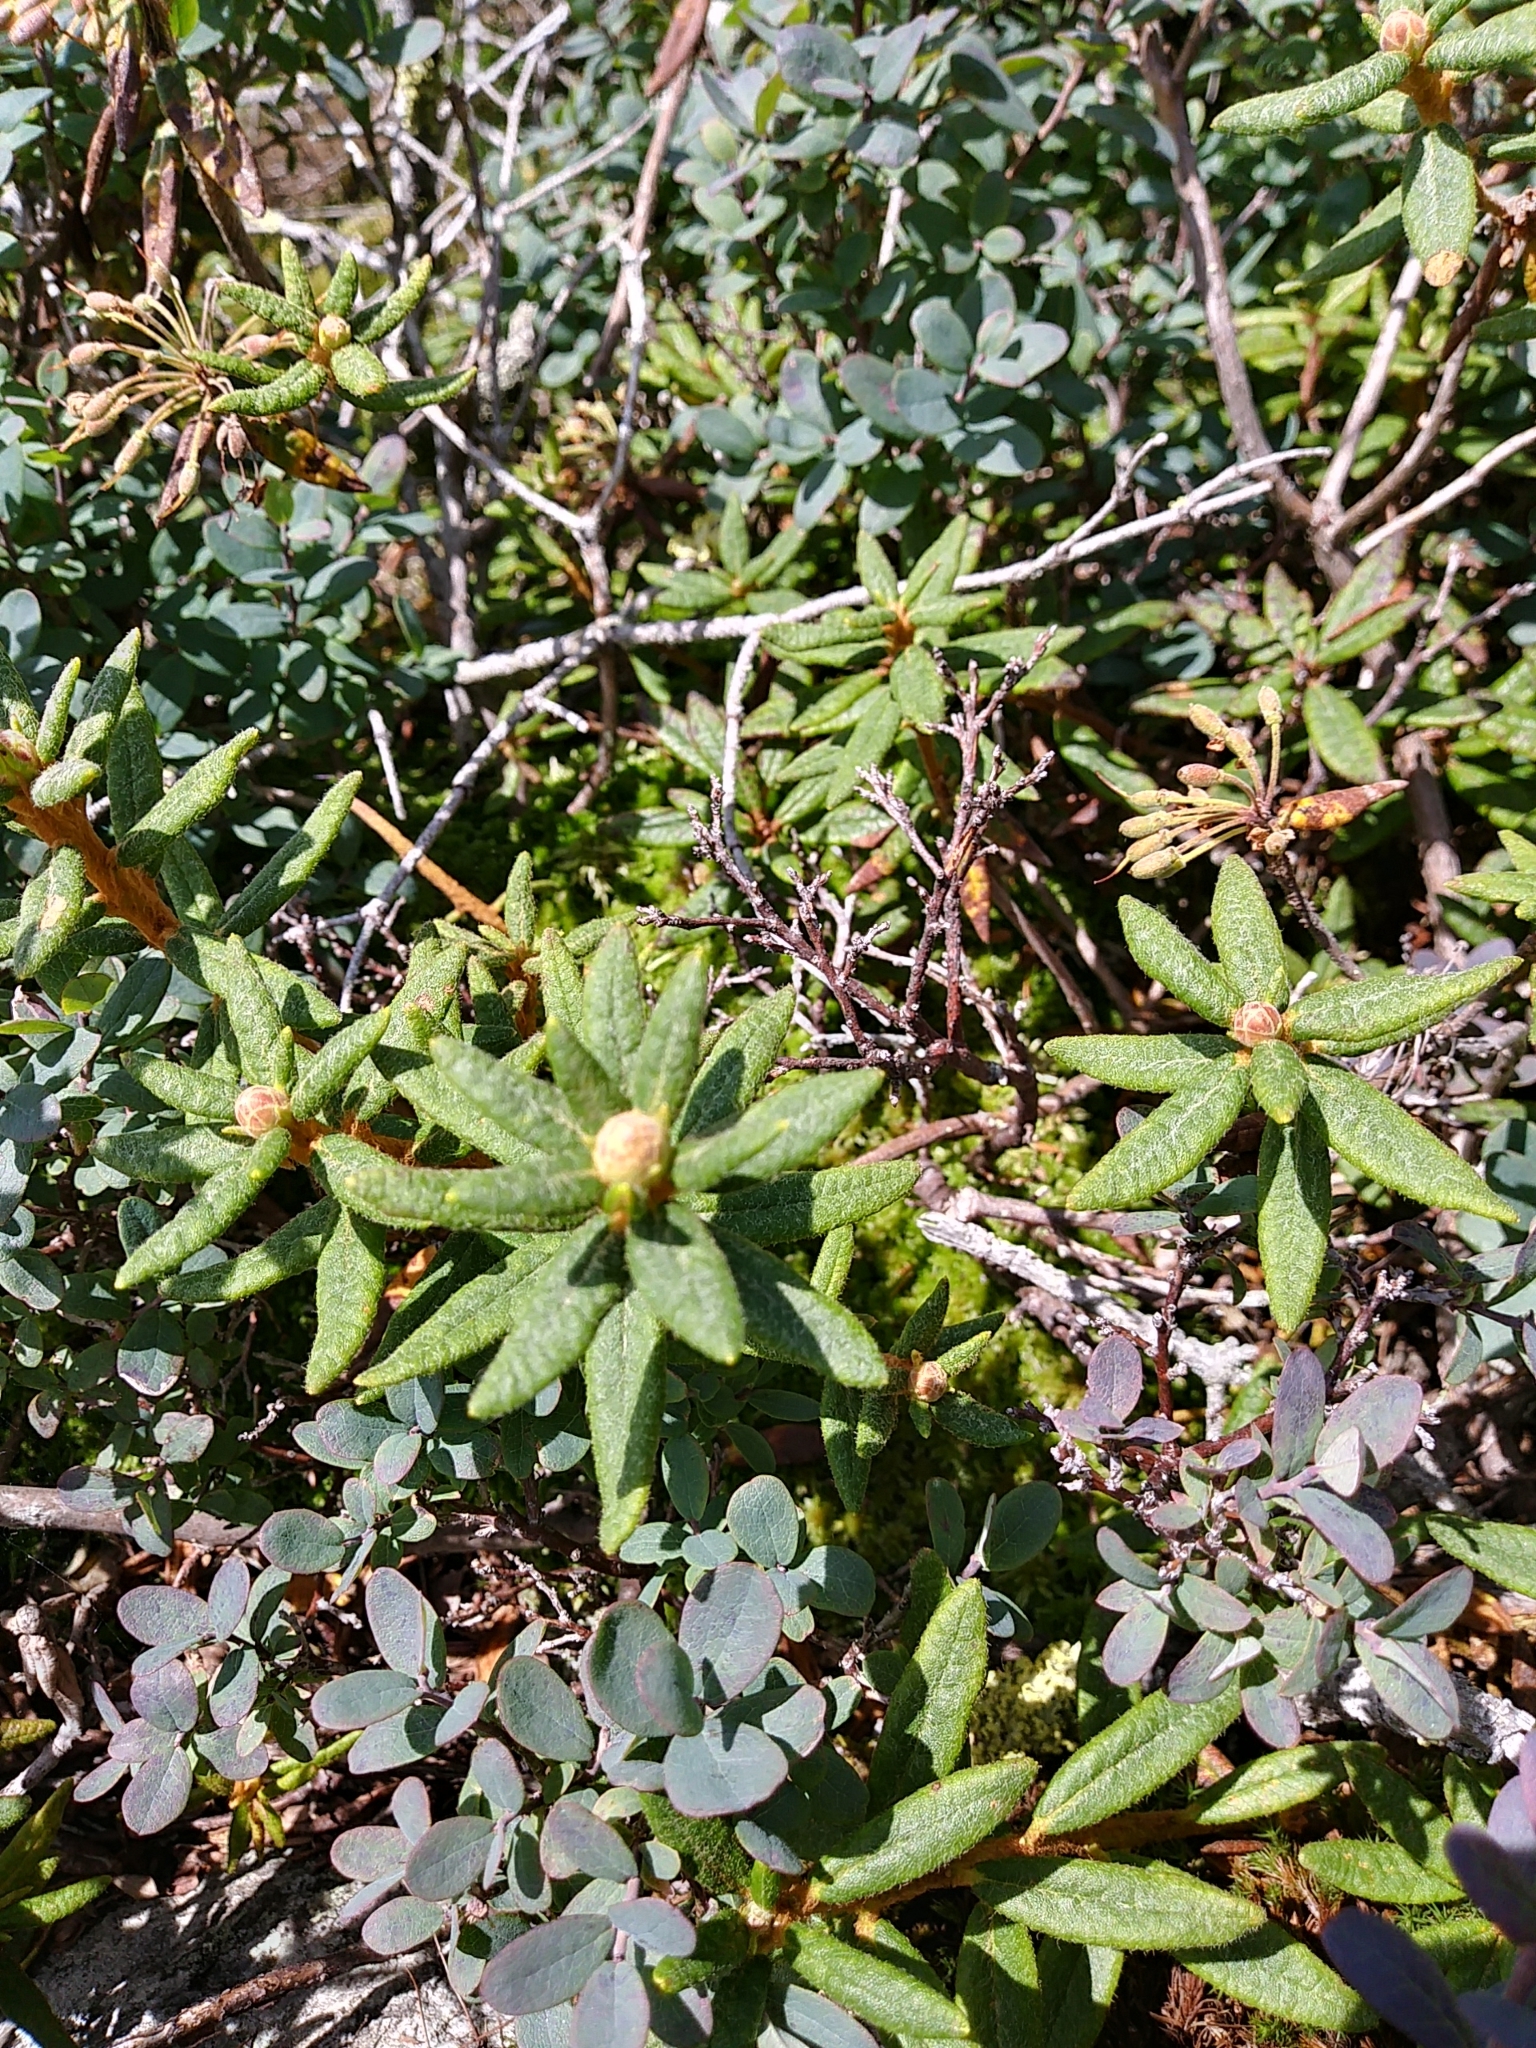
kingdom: Plantae
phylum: Tracheophyta
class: Magnoliopsida
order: Ericales
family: Ericaceae
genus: Rhododendron
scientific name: Rhododendron groenlandicum
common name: Bog labrador tea
